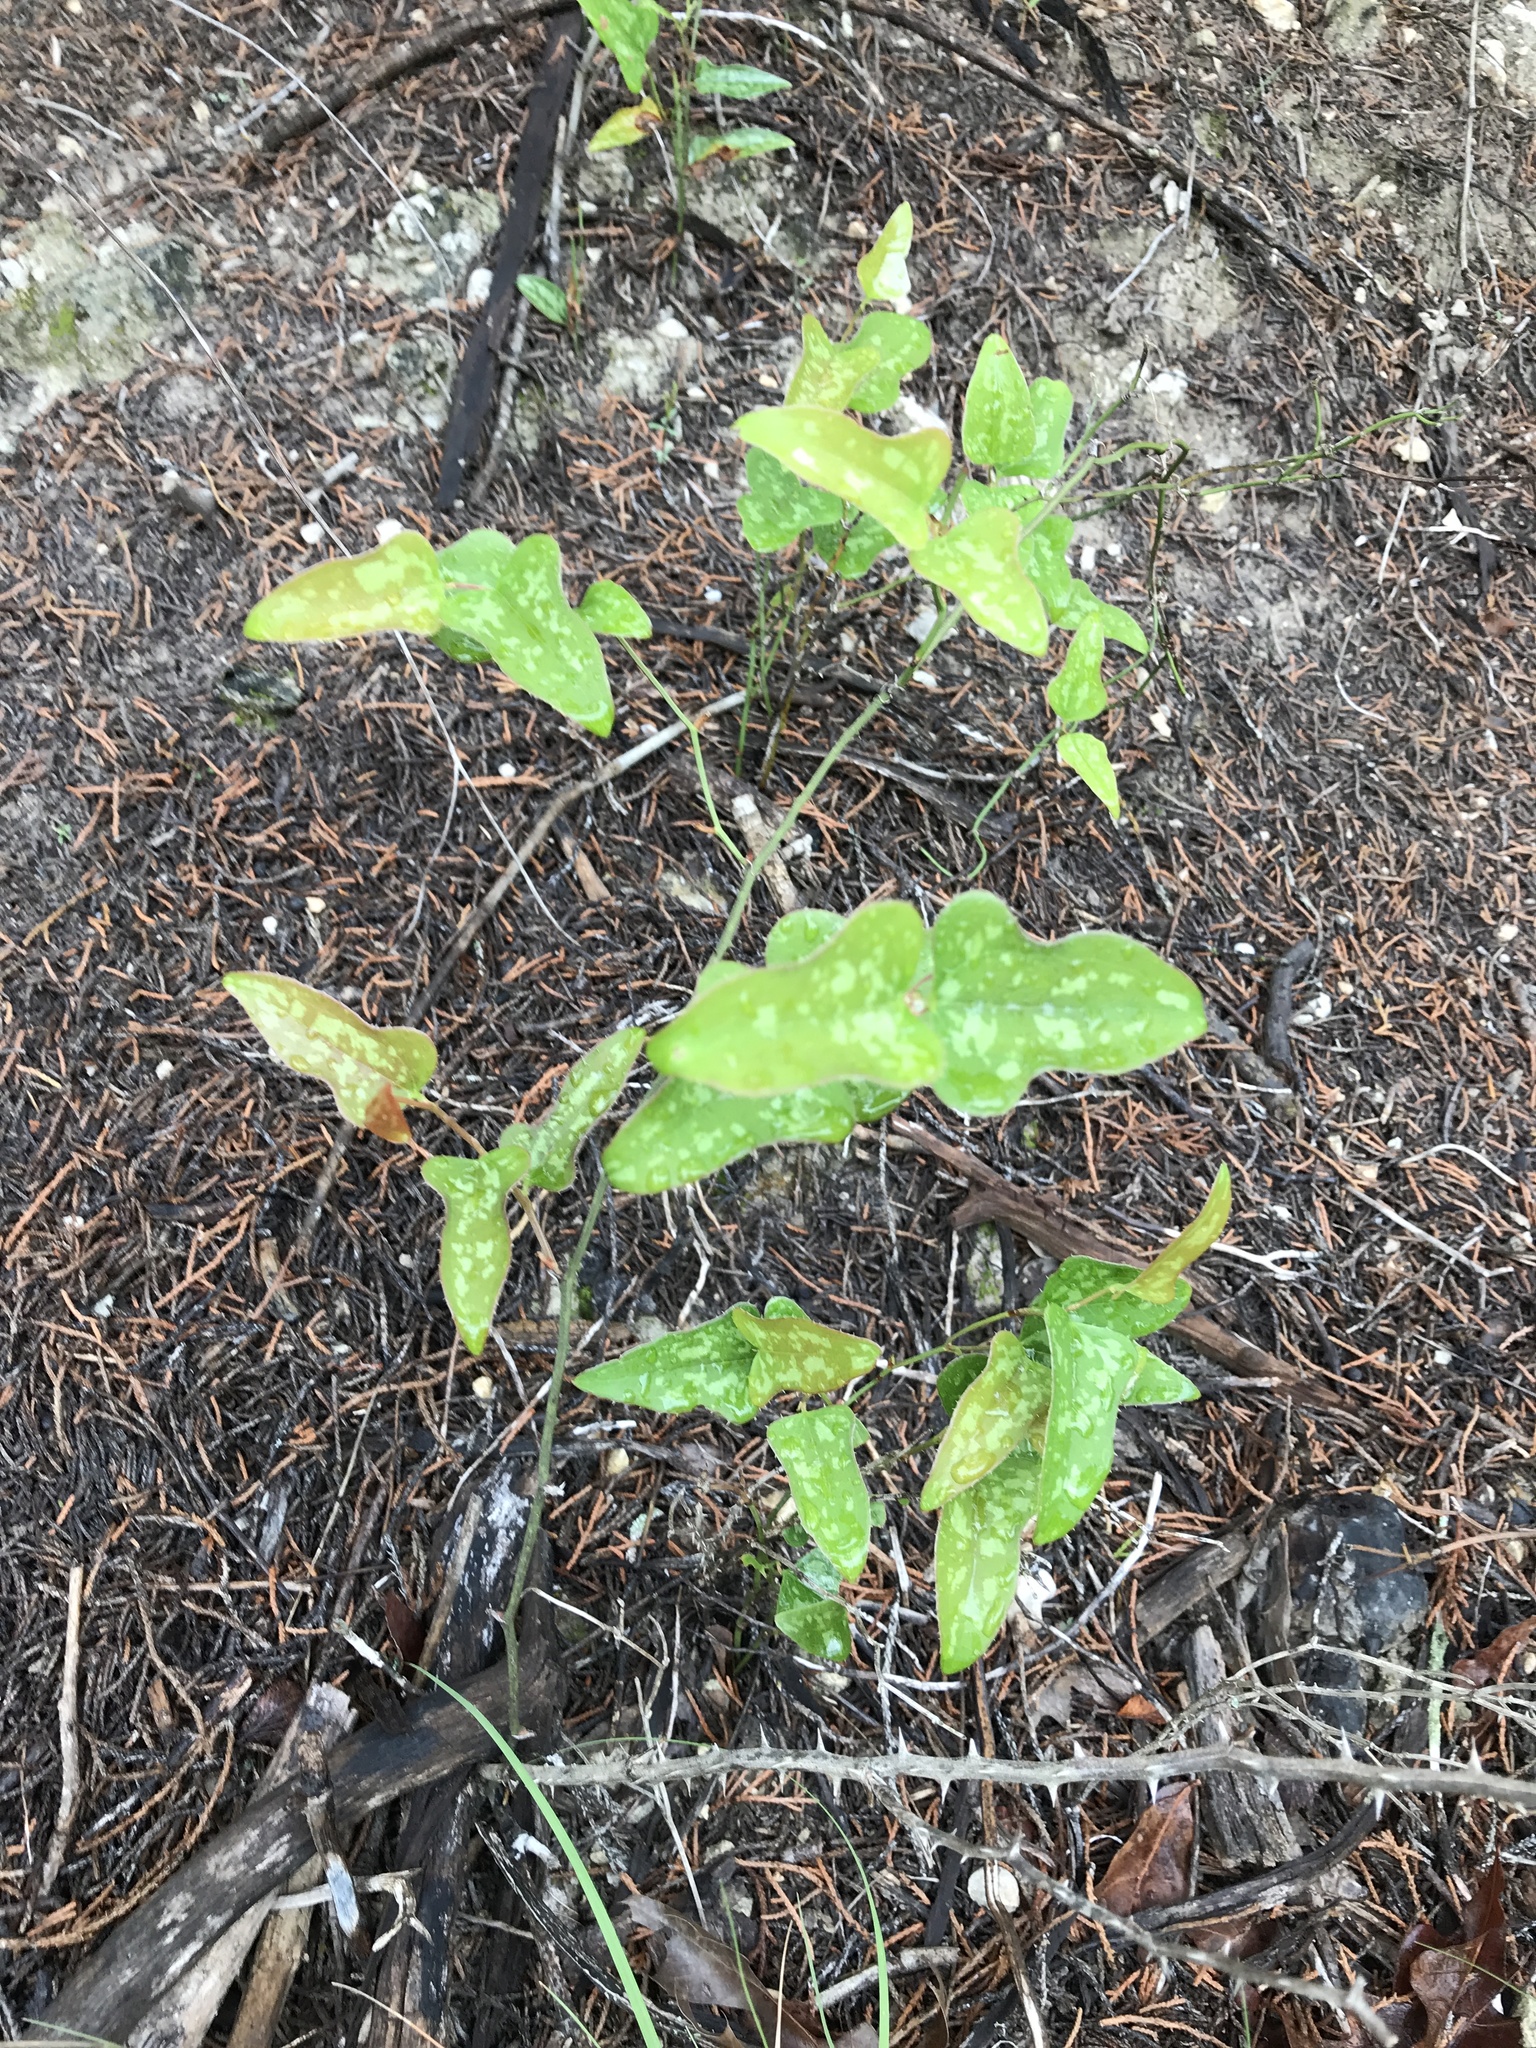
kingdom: Plantae
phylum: Tracheophyta
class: Liliopsida
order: Liliales
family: Smilacaceae
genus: Smilax
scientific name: Smilax bona-nox
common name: Catbrier
